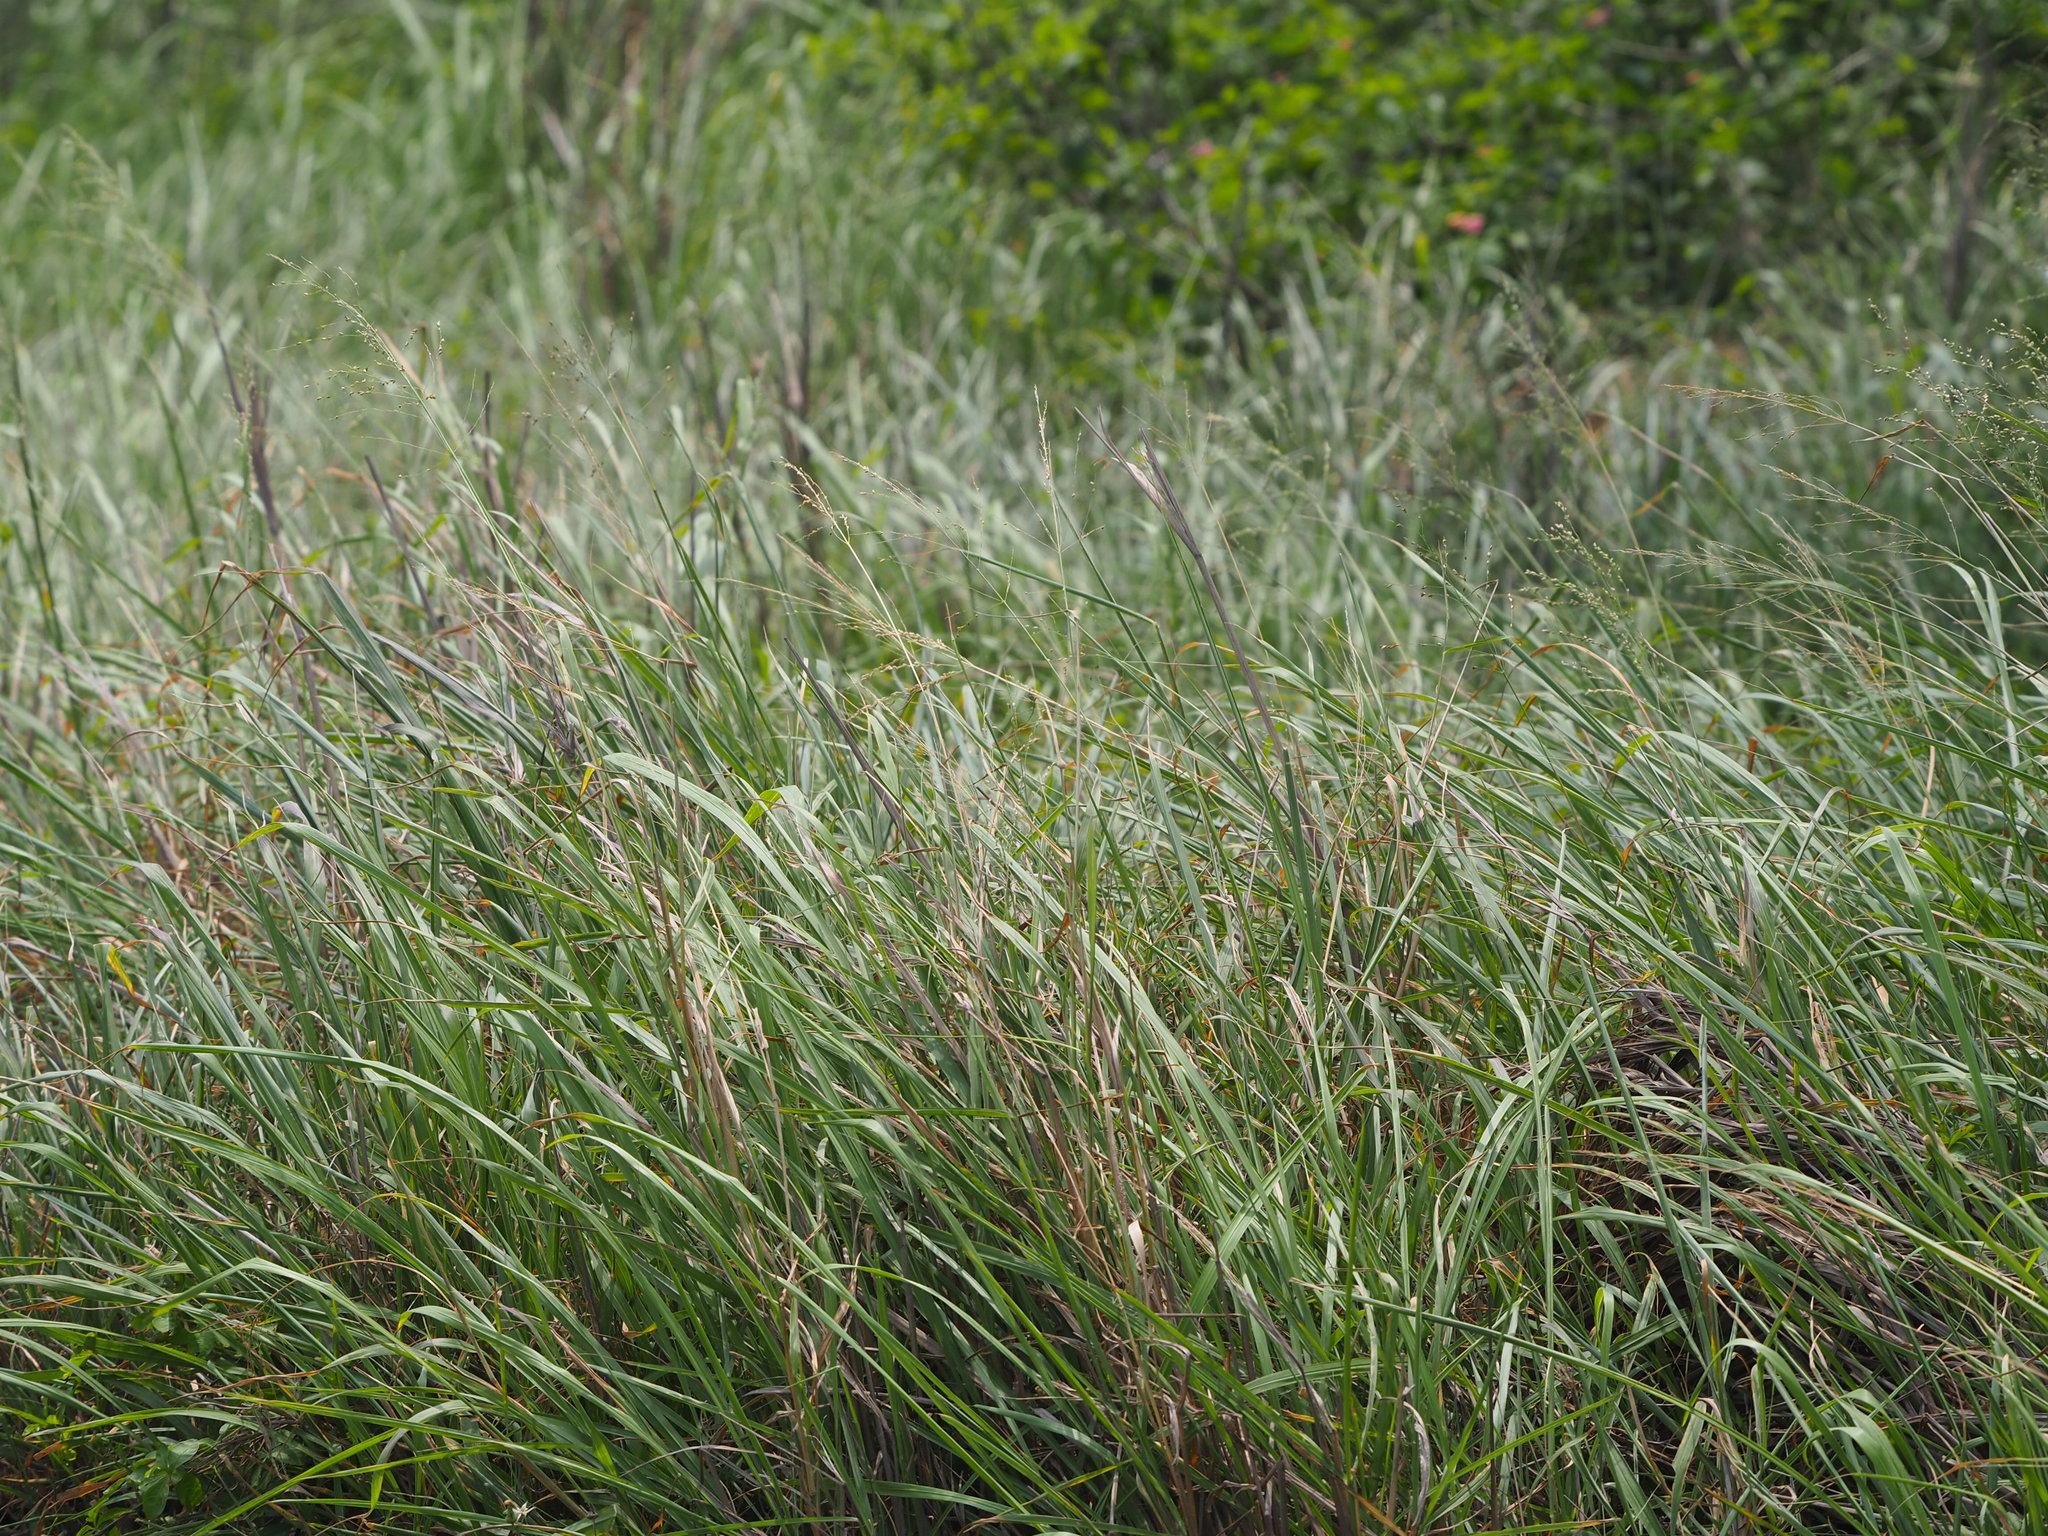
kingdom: Plantae
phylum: Tracheophyta
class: Liliopsida
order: Poales
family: Poaceae
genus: Megathyrsus
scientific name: Megathyrsus maximus
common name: Guineagrass
